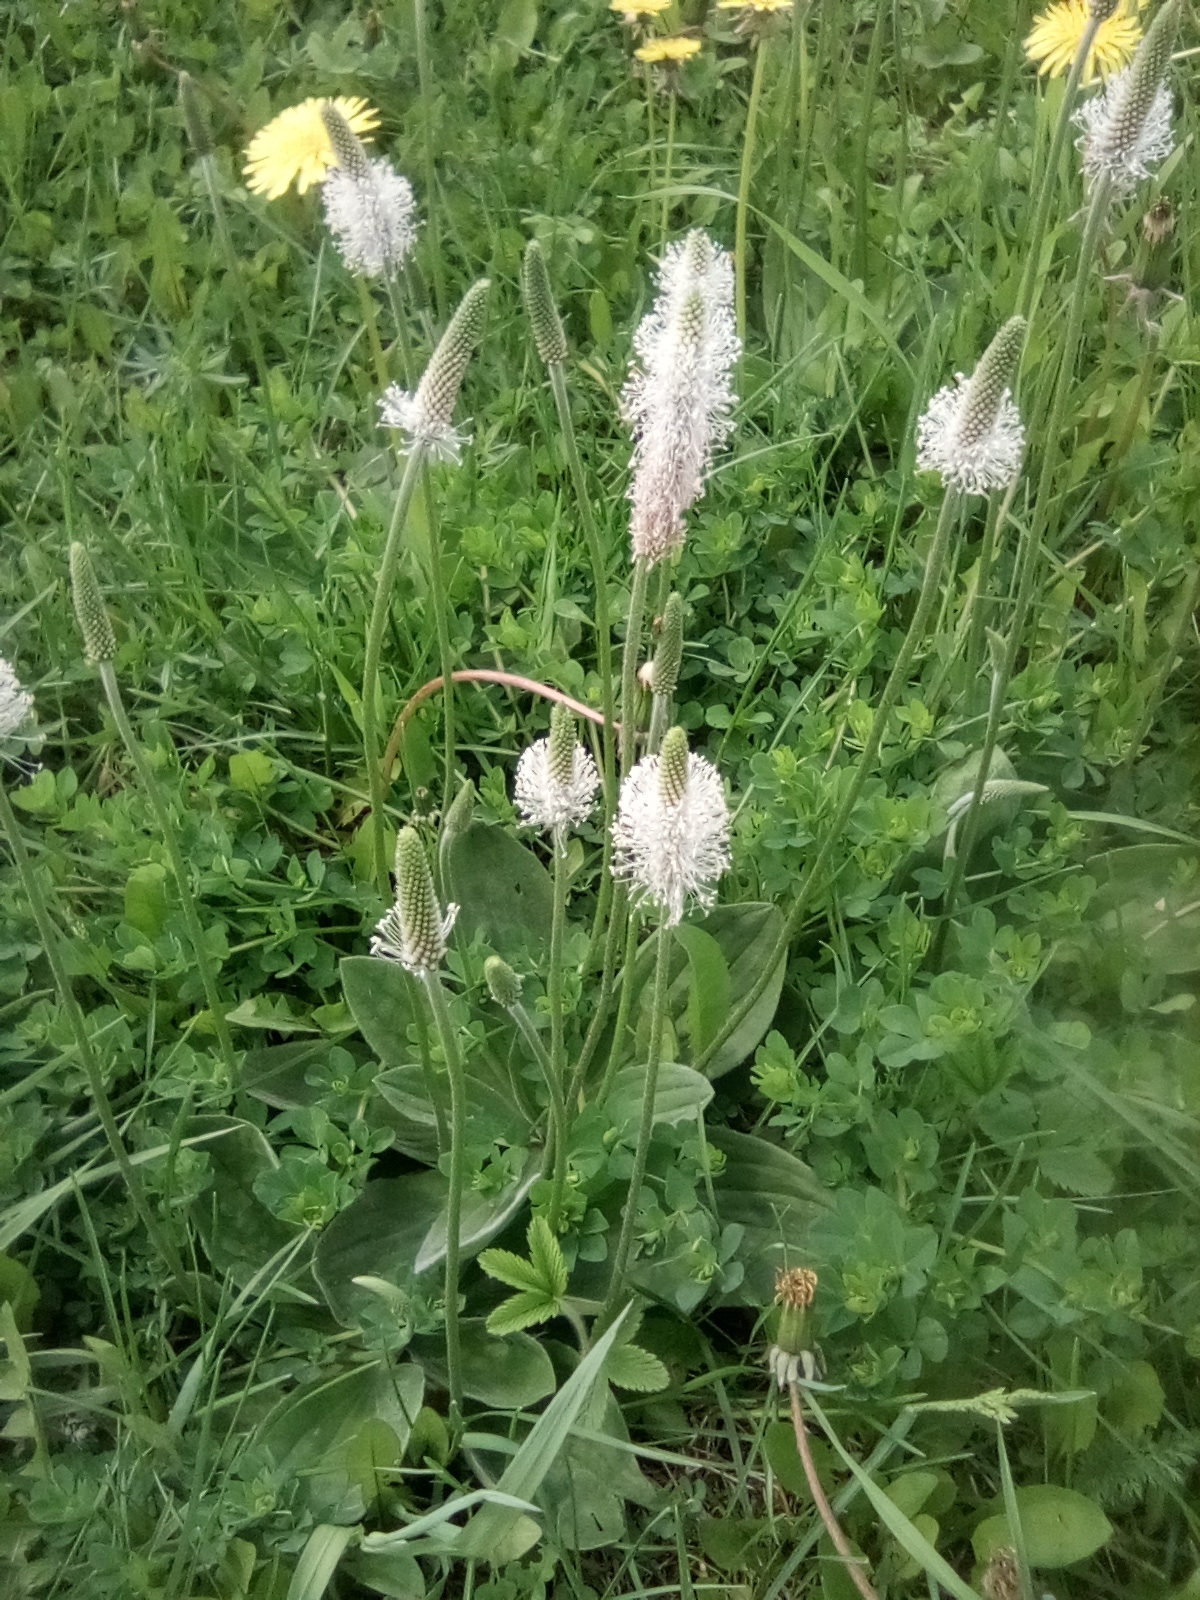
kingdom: Plantae
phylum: Tracheophyta
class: Magnoliopsida
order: Lamiales
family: Plantaginaceae
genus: Plantago
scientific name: Plantago media
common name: Hoary plantain
